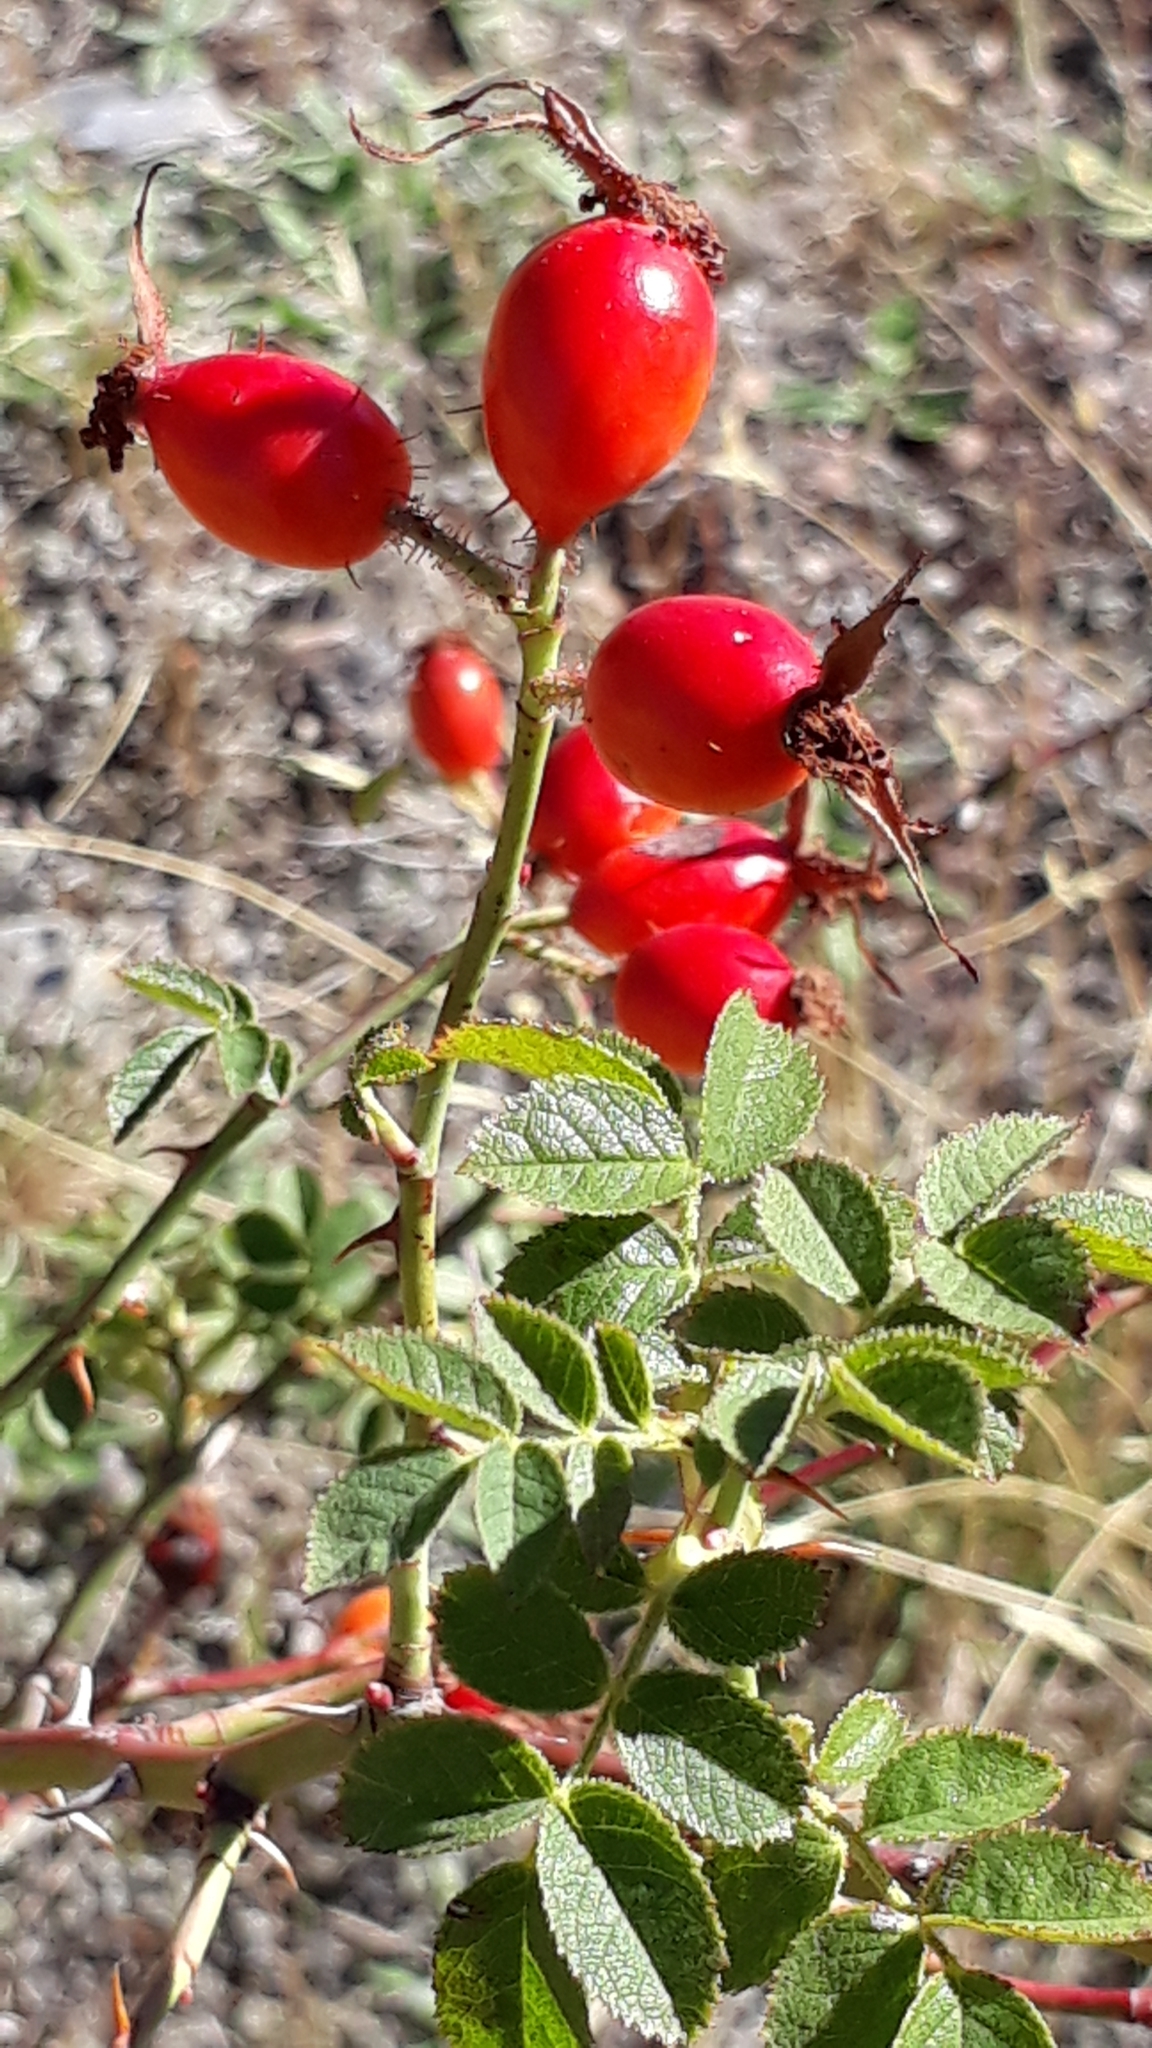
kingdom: Plantae
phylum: Tracheophyta
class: Magnoliopsida
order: Rosales
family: Rosaceae
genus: Rosa
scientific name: Rosa rubiginosa
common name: Sweet-briar
